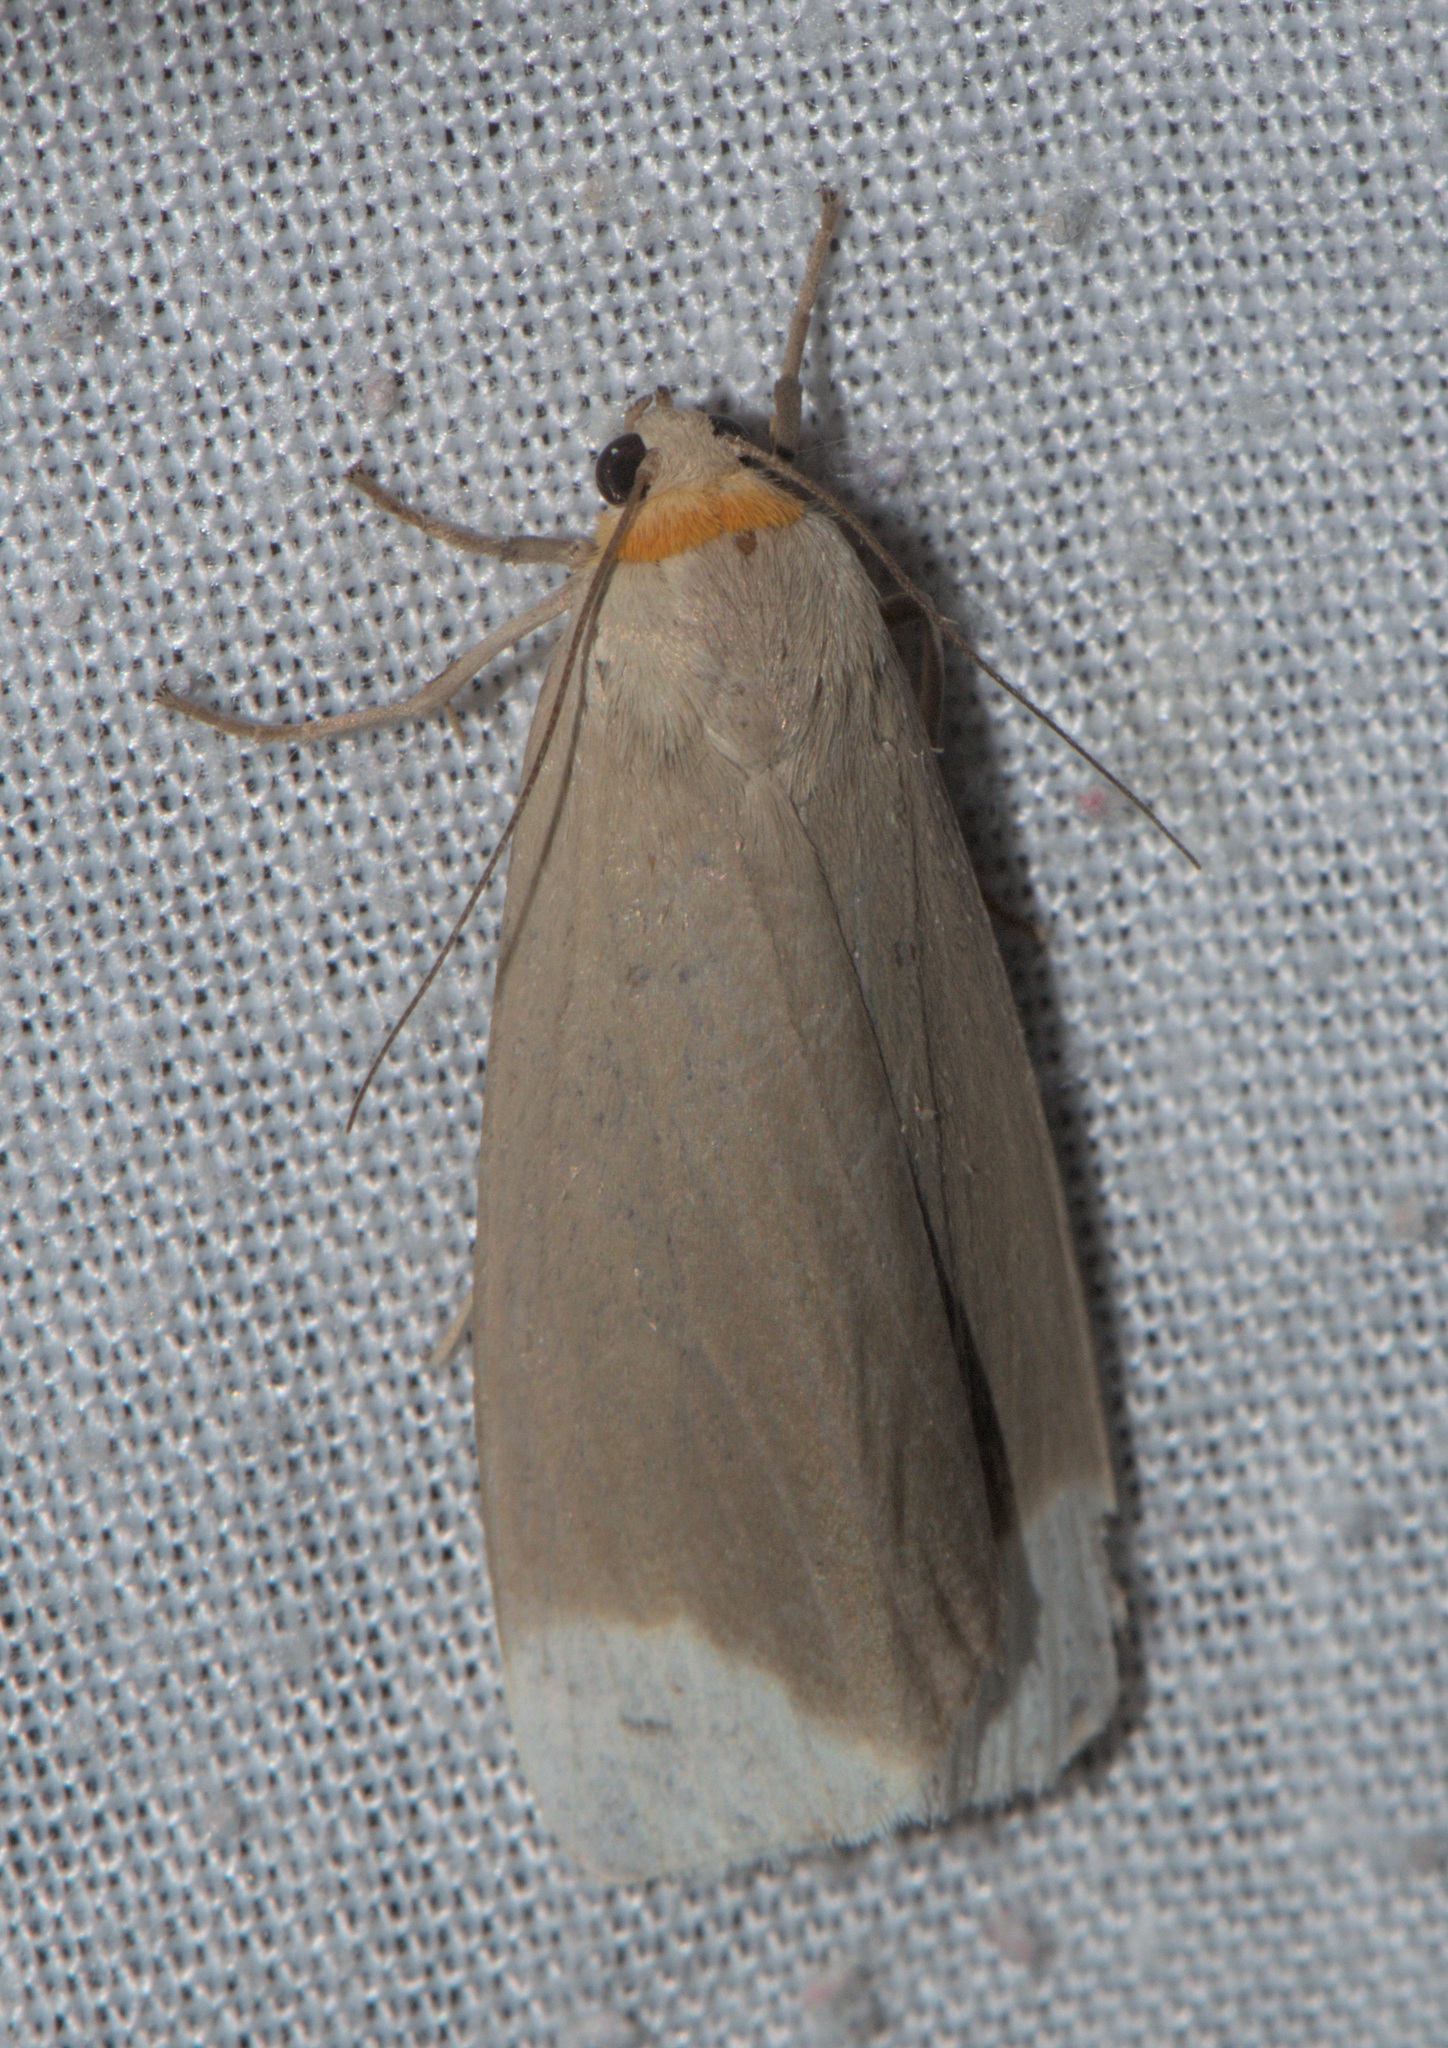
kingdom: Animalia
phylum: Arthropoda
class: Insecta
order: Lepidoptera
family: Erebidae
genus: Sidyma
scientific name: Sidyma albifinis
